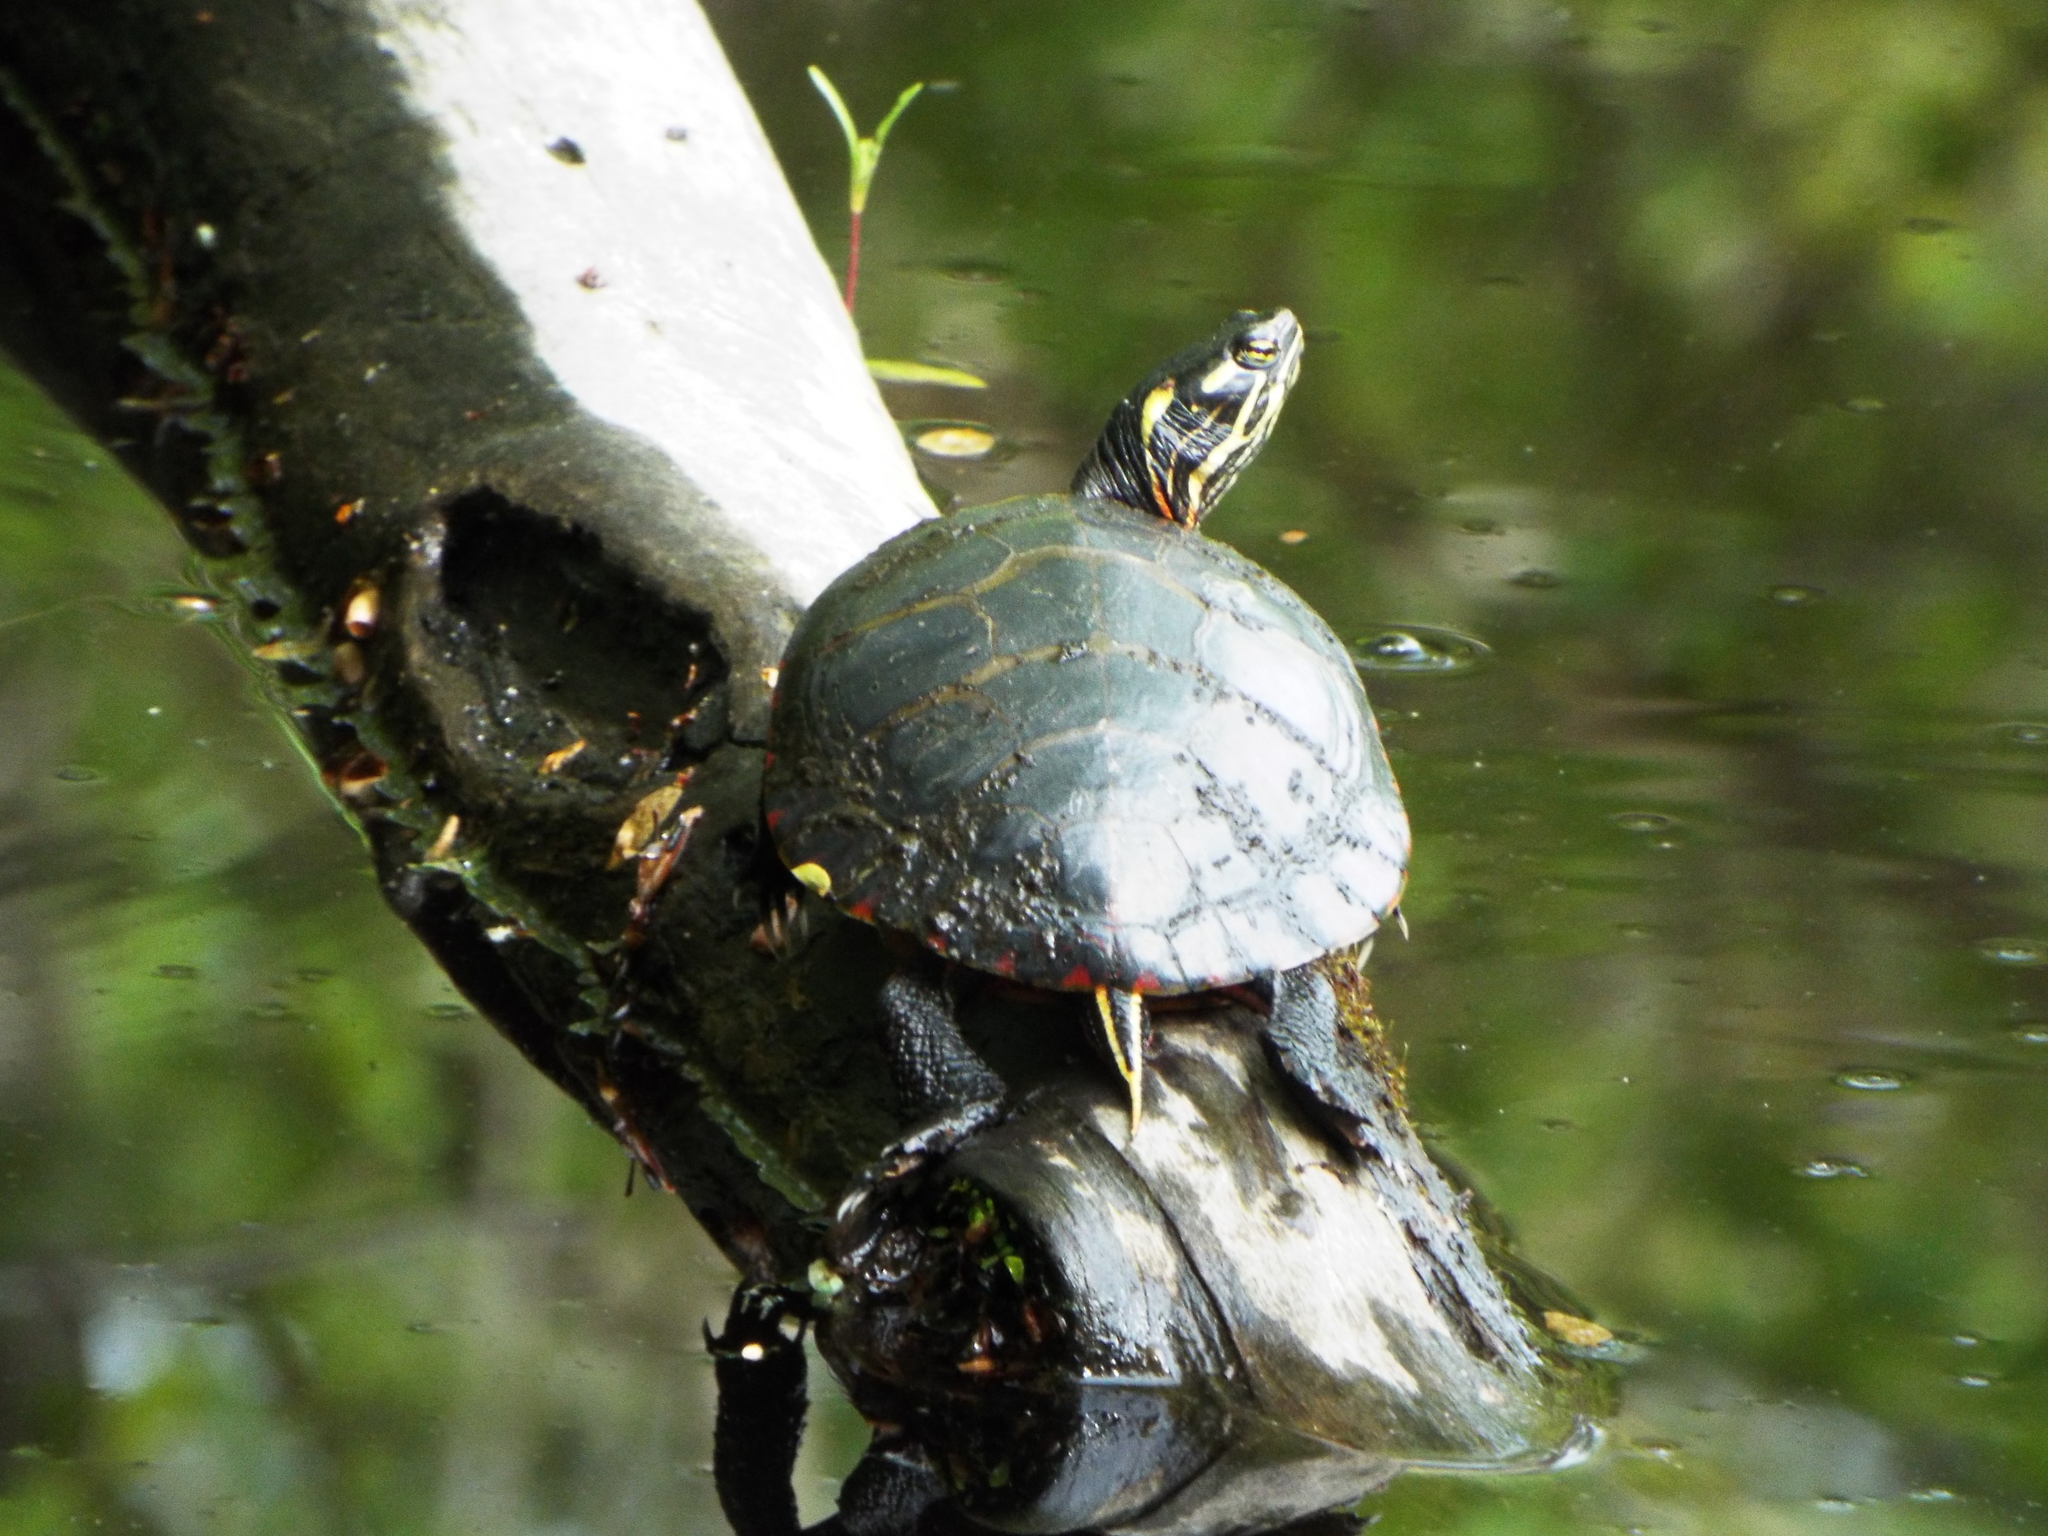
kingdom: Animalia
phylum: Chordata
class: Testudines
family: Emydidae
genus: Chrysemys
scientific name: Chrysemys picta
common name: Painted turtle
